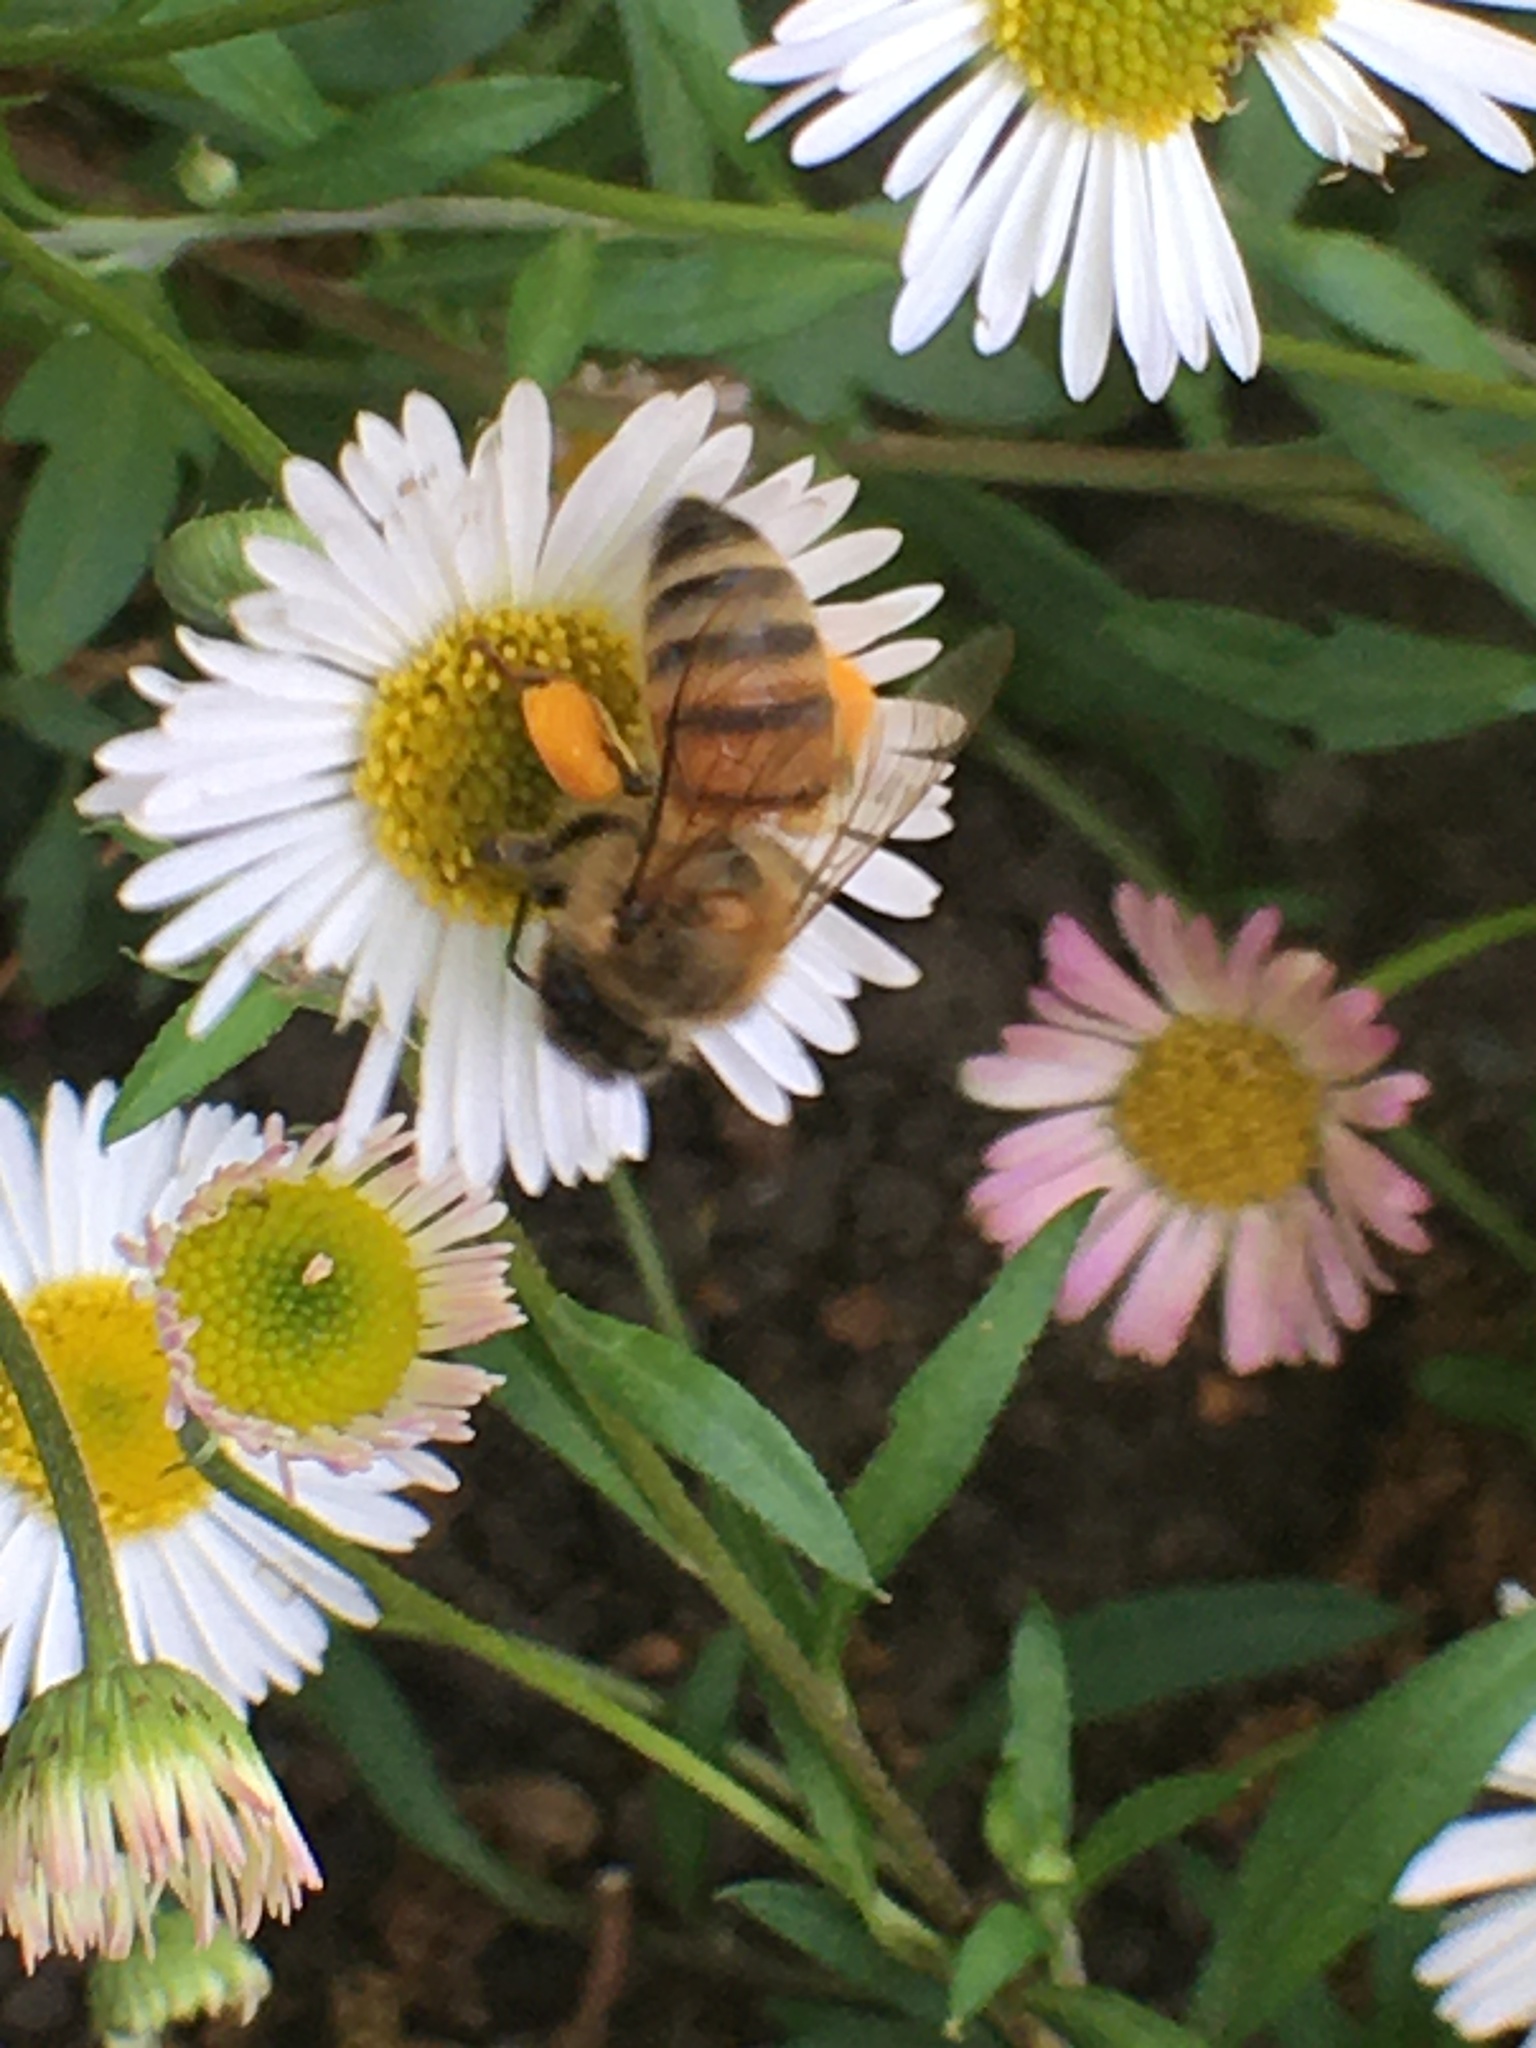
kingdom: Animalia
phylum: Arthropoda
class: Insecta
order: Hymenoptera
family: Apidae
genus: Apis
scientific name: Apis mellifera
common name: Honey bee
